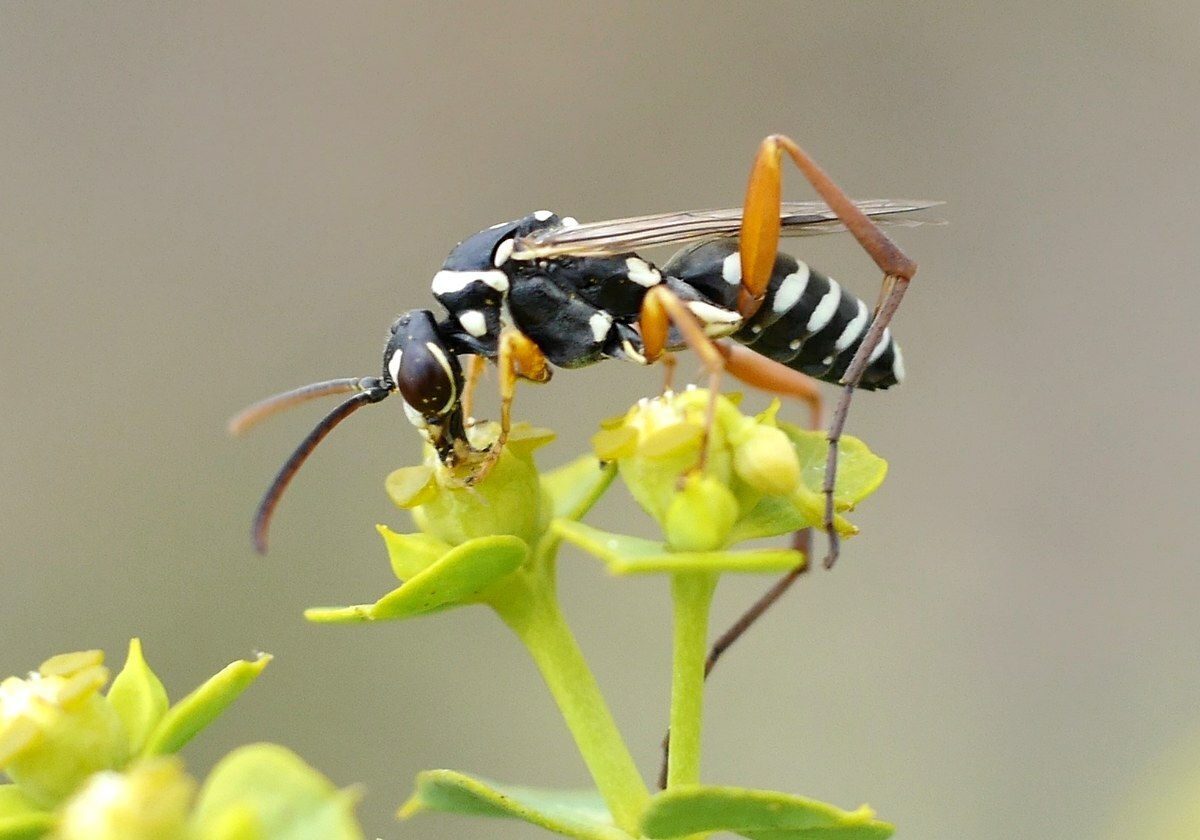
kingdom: Animalia
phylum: Arthropoda
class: Insecta
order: Hymenoptera
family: Pompilidae
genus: Ceropales
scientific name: Ceropales albicincta
